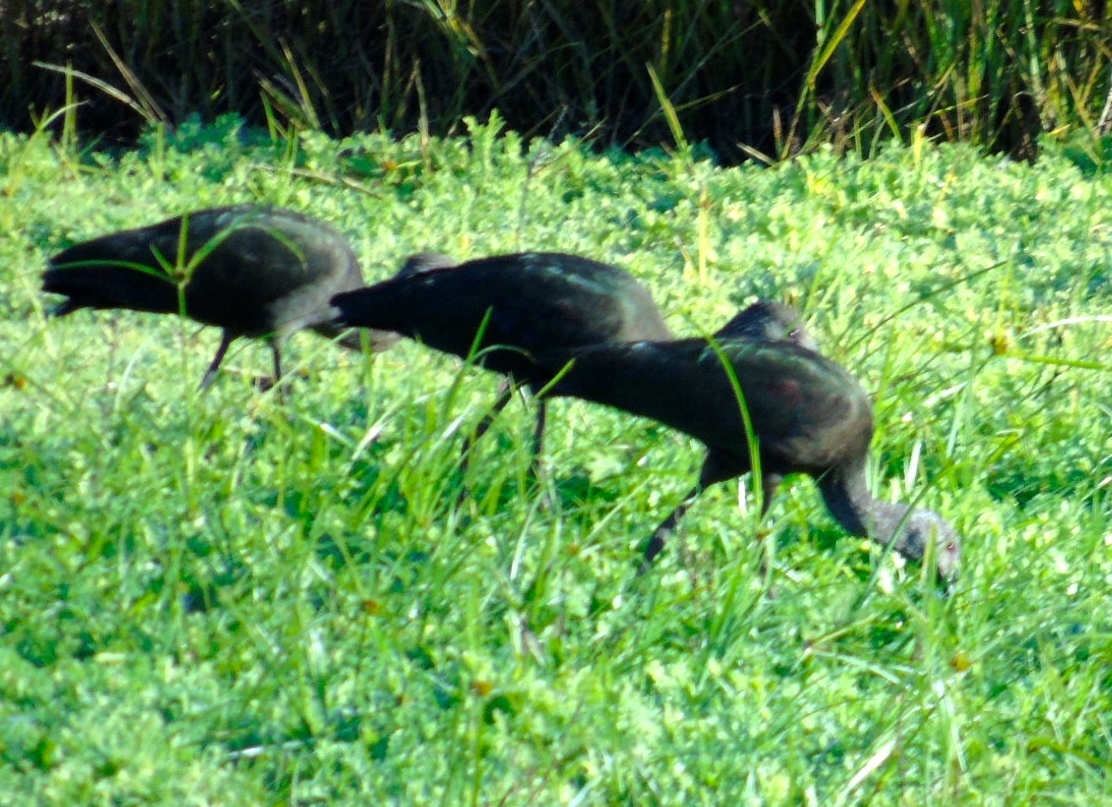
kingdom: Animalia
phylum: Chordata
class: Aves
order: Pelecaniformes
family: Threskiornithidae
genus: Plegadis
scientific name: Plegadis chihi
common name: White-faced ibis
